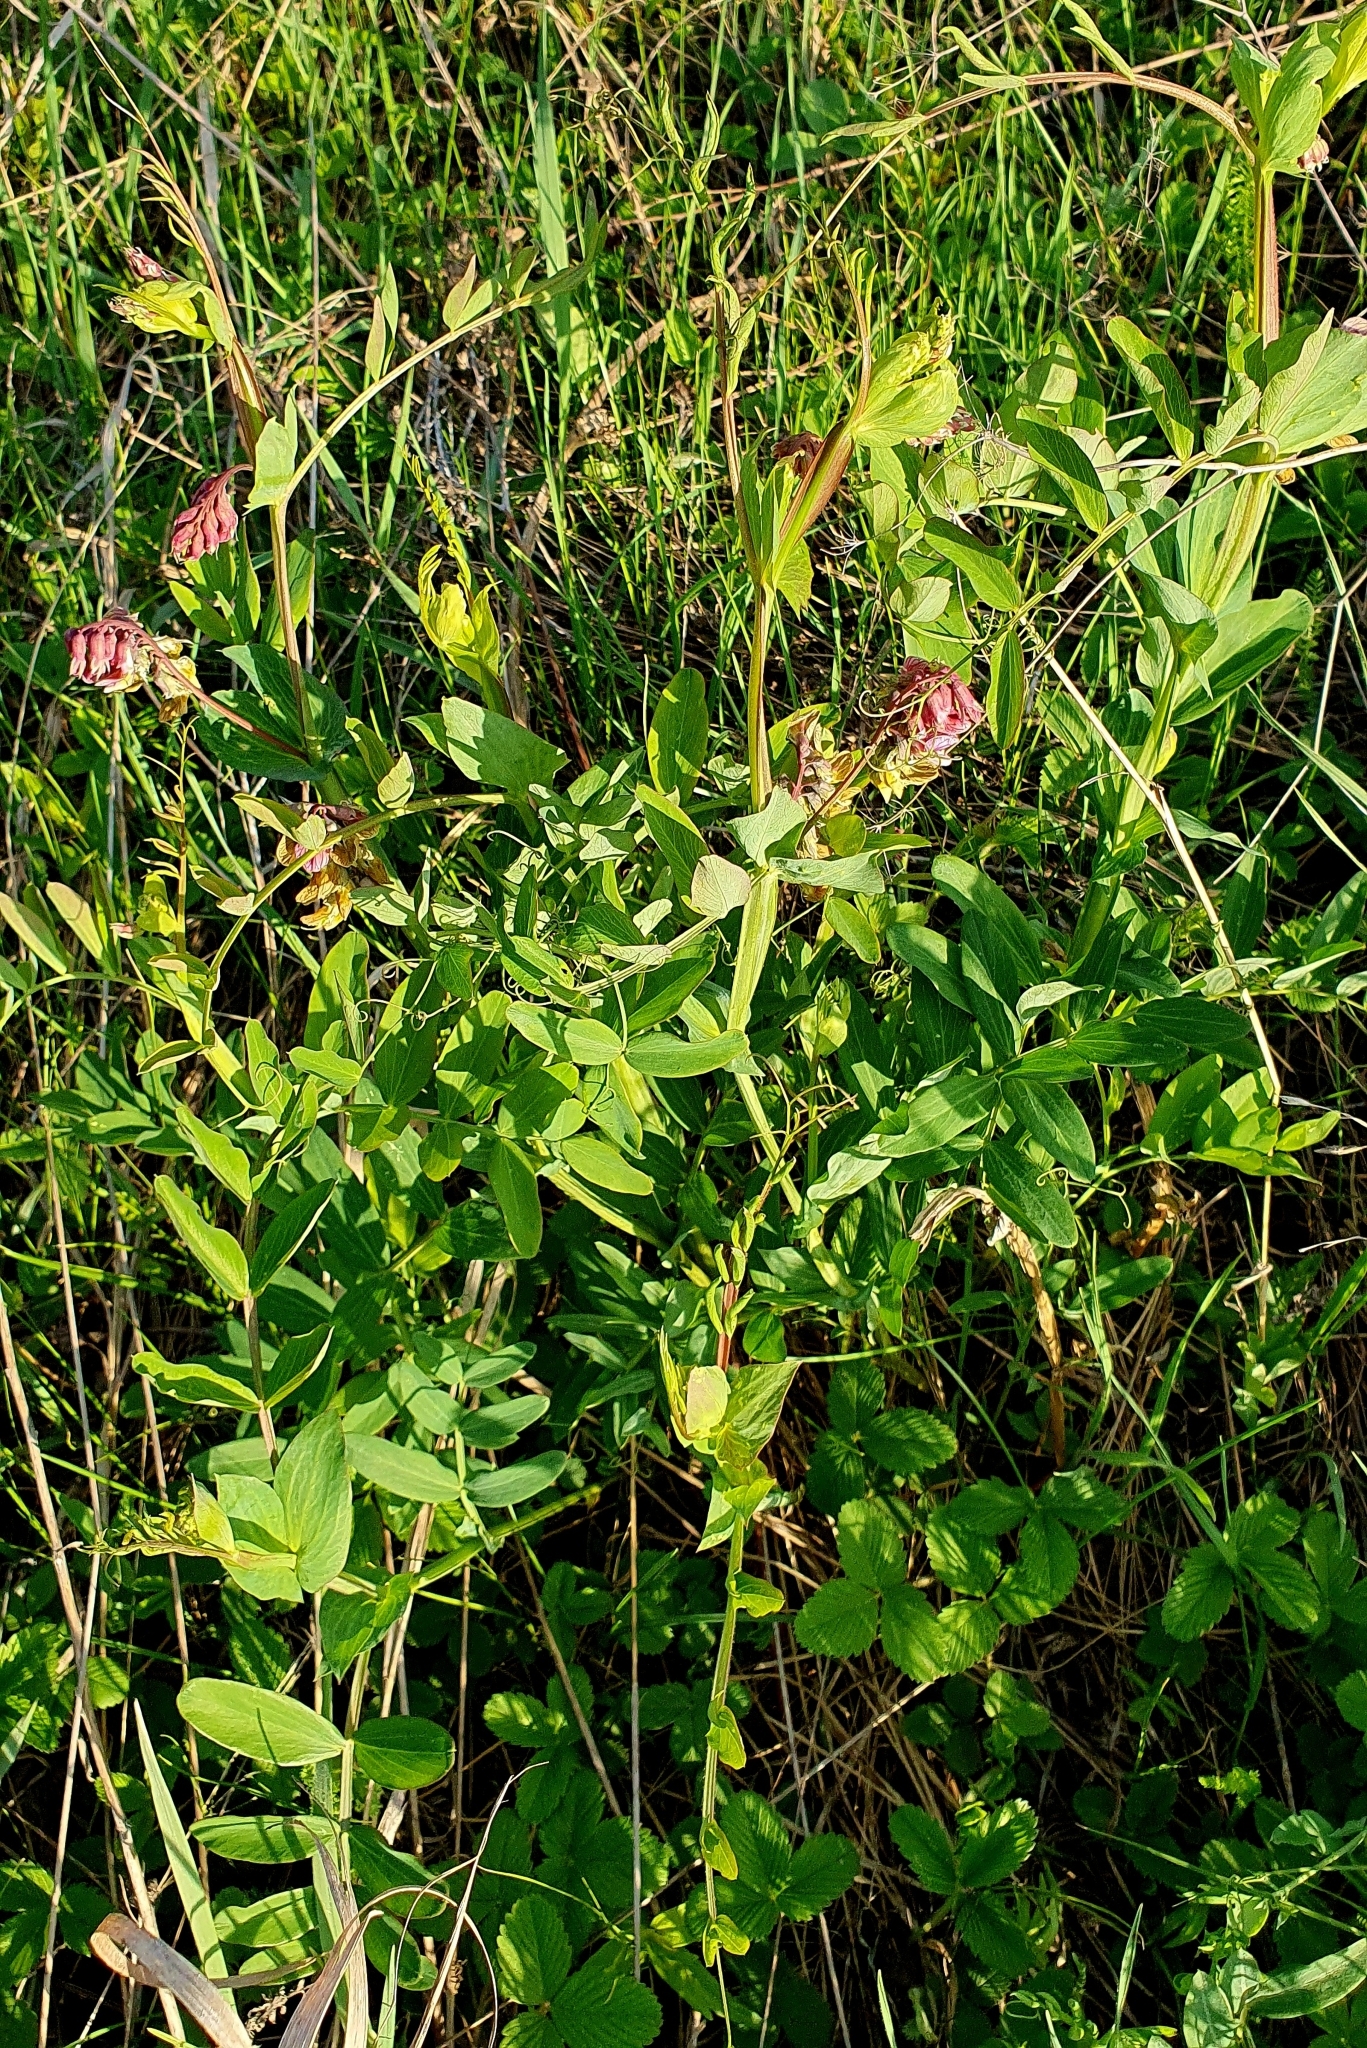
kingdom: Plantae
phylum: Tracheophyta
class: Magnoliopsida
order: Fabales
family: Fabaceae
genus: Lathyrus
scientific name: Lathyrus pisiformis
